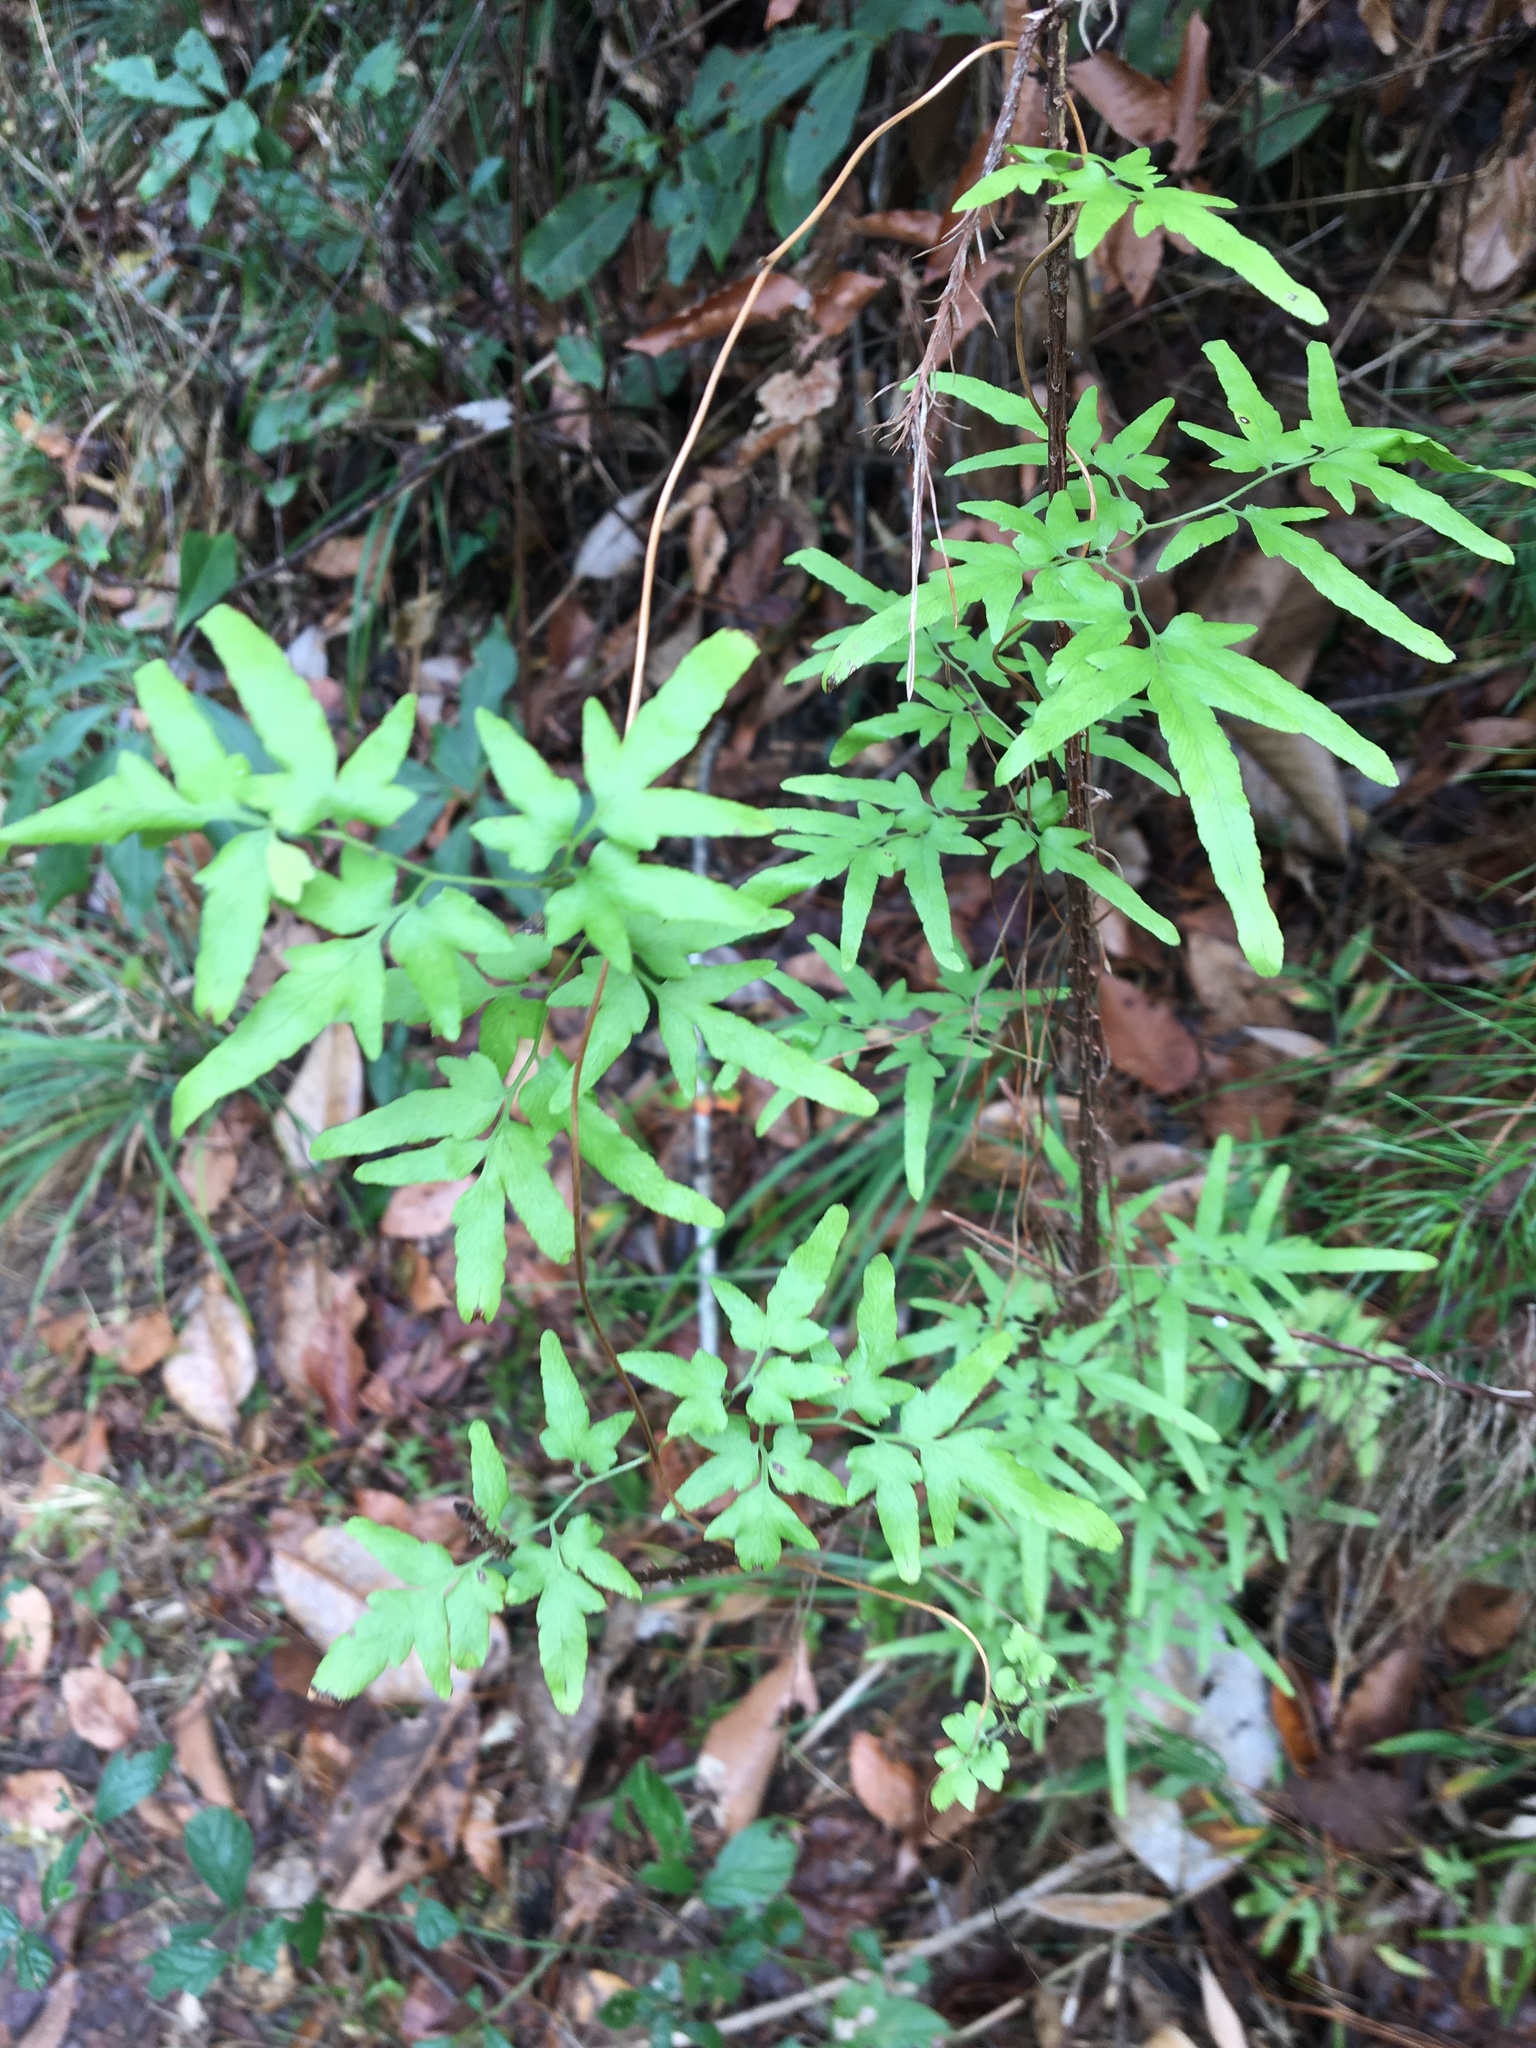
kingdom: Plantae
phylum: Tracheophyta
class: Polypodiopsida
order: Schizaeales
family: Lygodiaceae
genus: Lygodium
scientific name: Lygodium japonicum
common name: Japanese climbing fern
